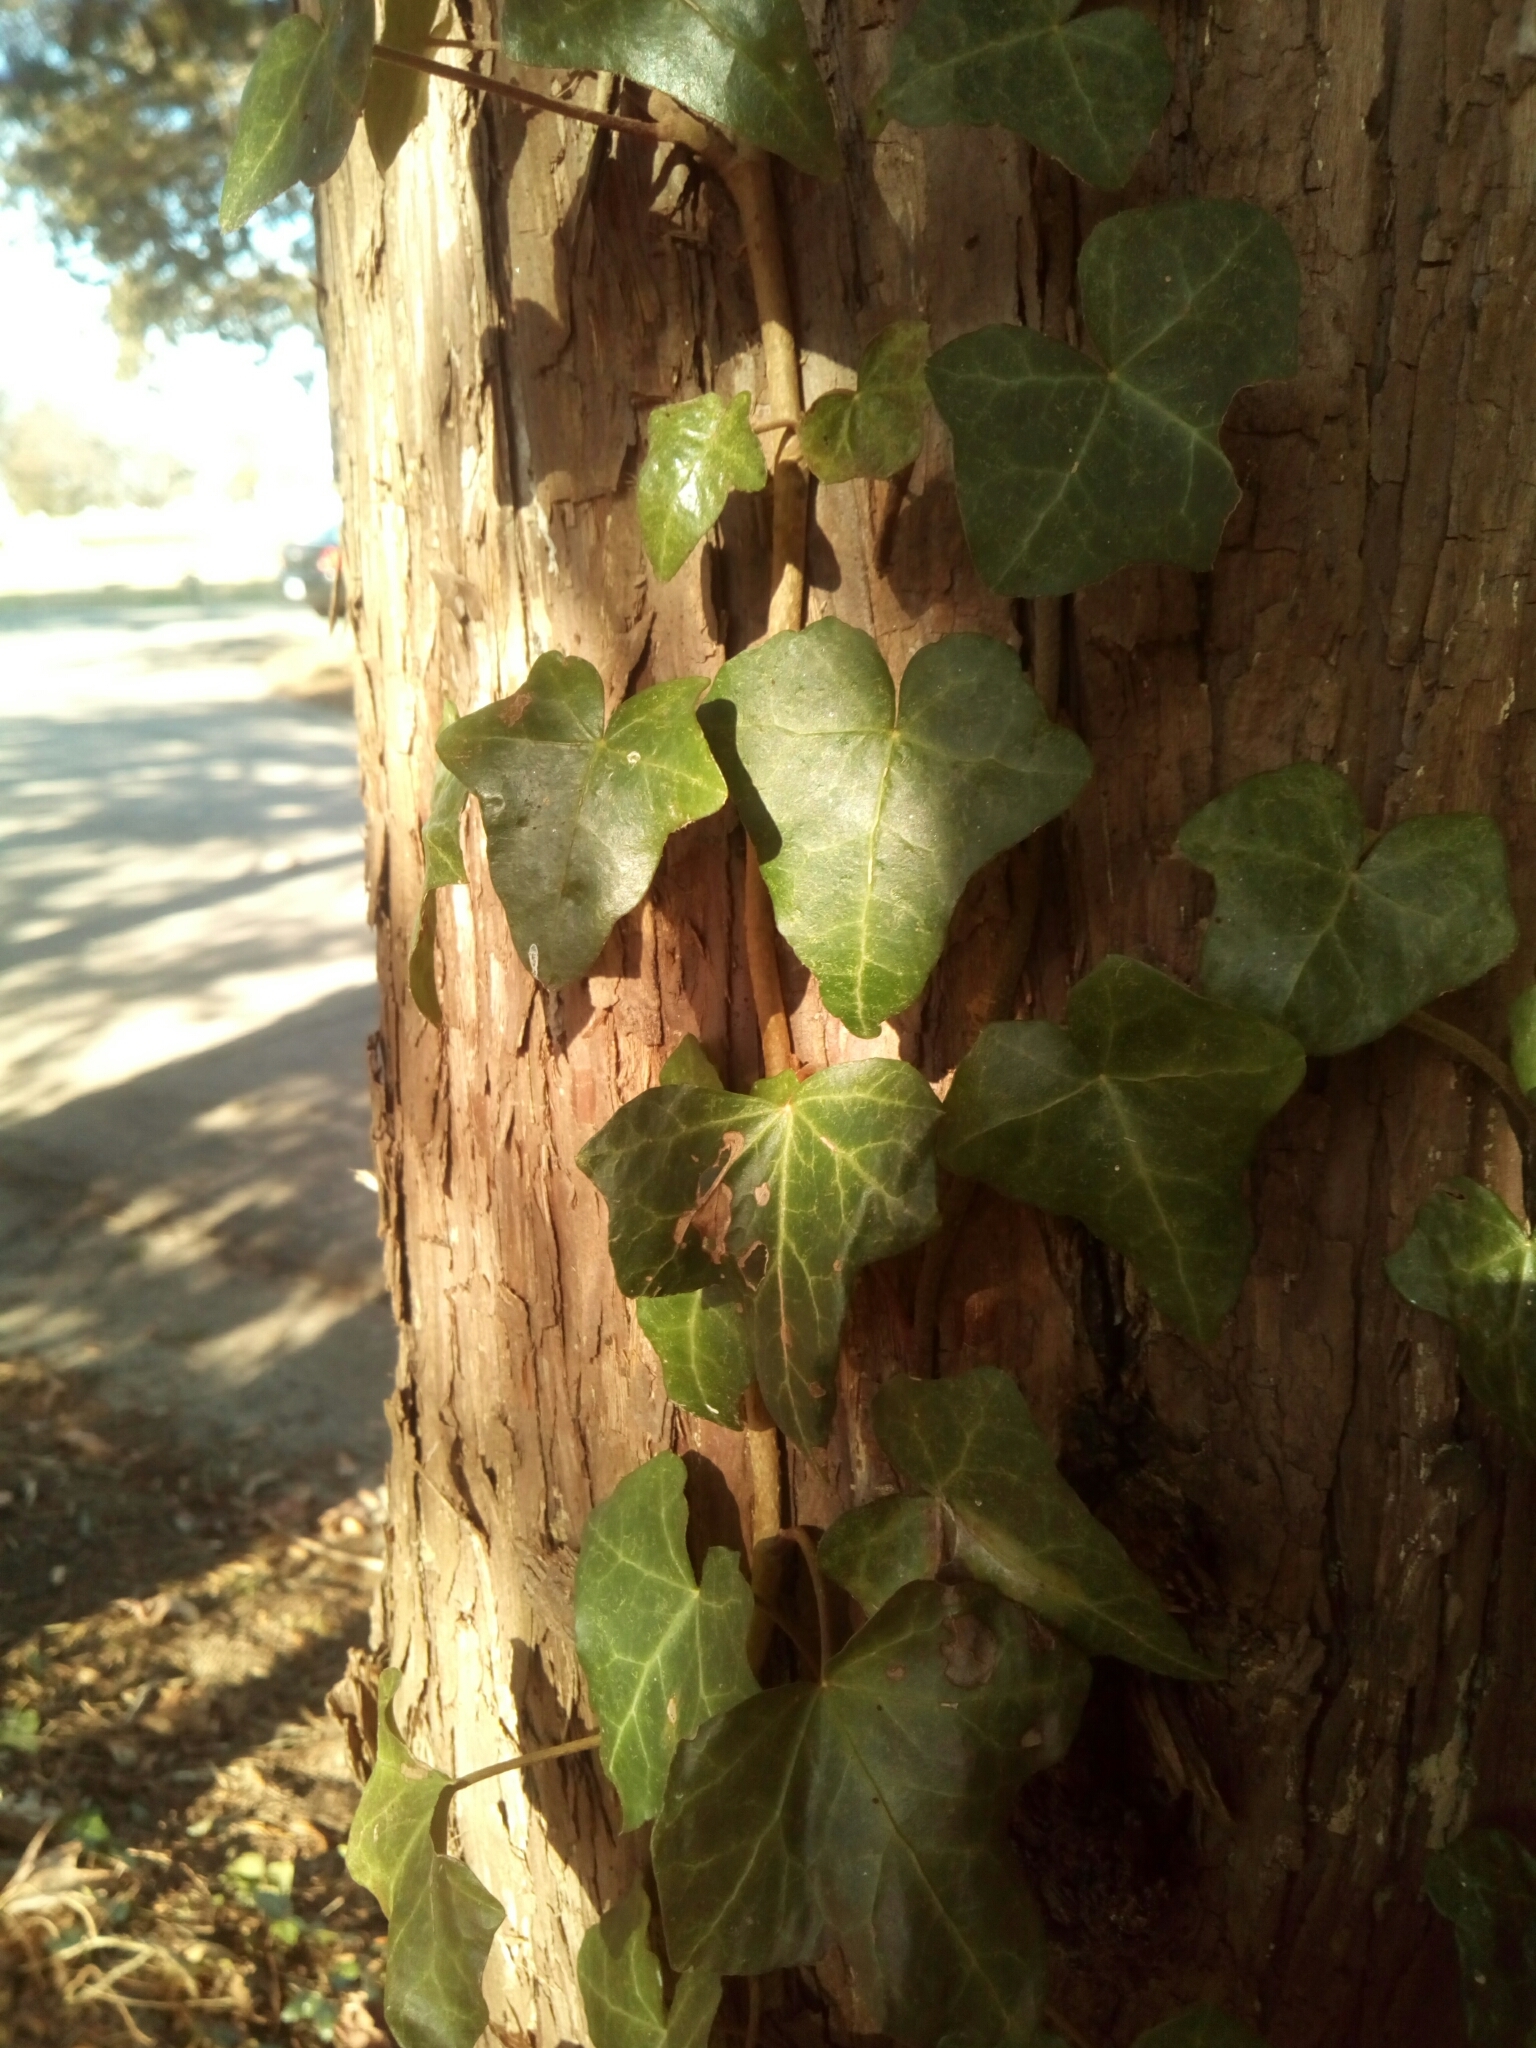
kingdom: Plantae
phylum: Tracheophyta
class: Magnoliopsida
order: Apiales
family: Araliaceae
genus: Hedera
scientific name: Hedera helix
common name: Ivy
